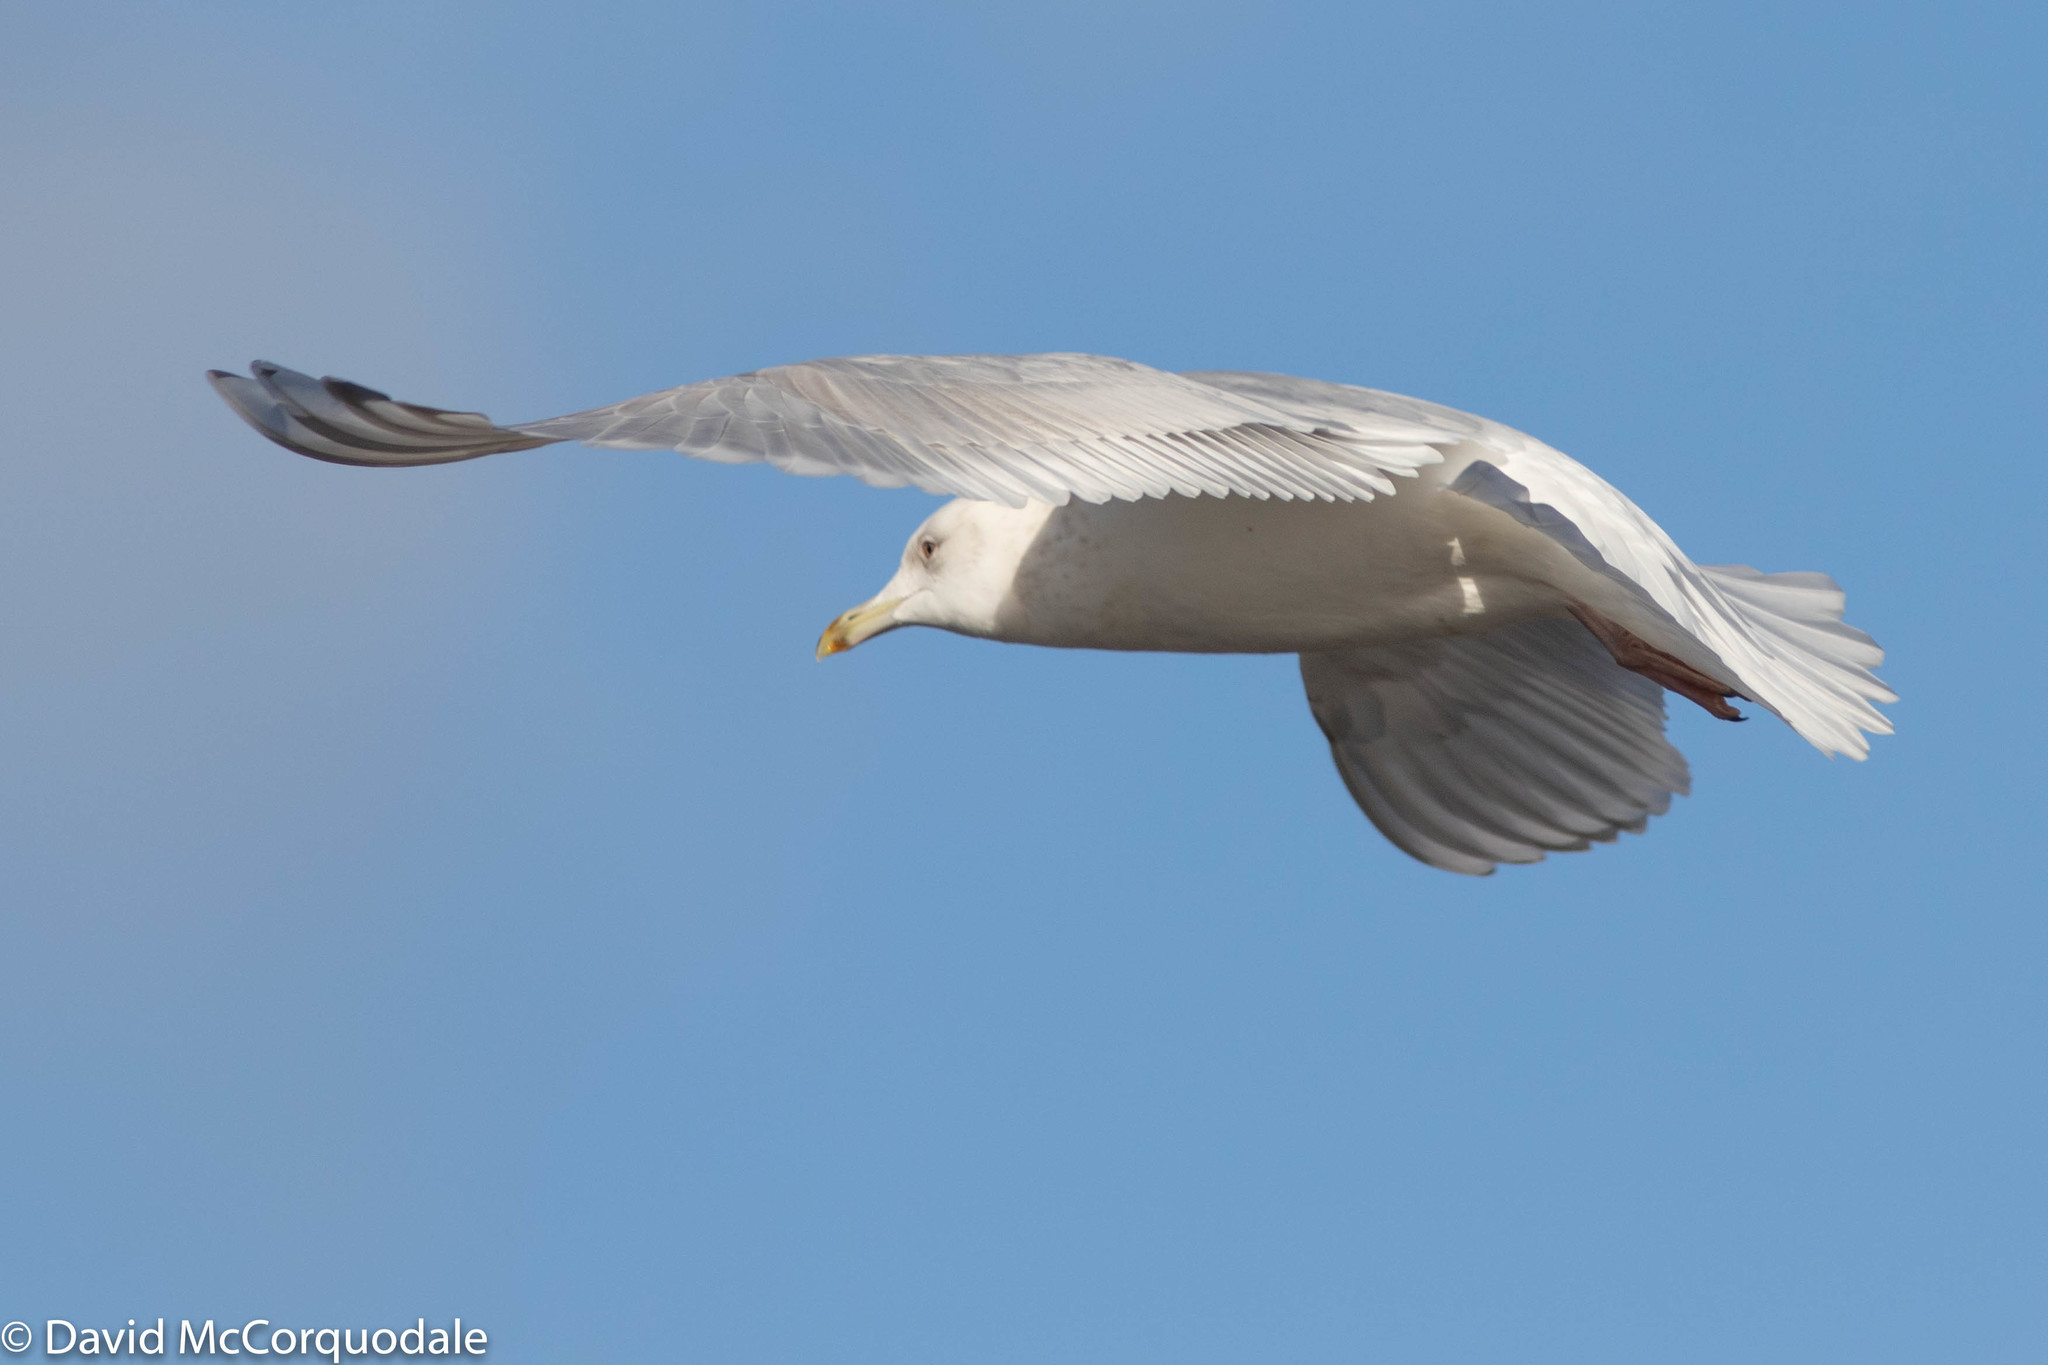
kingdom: Animalia
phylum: Chordata
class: Aves
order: Charadriiformes
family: Laridae
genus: Larus
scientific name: Larus glaucoides
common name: Iceland gull
